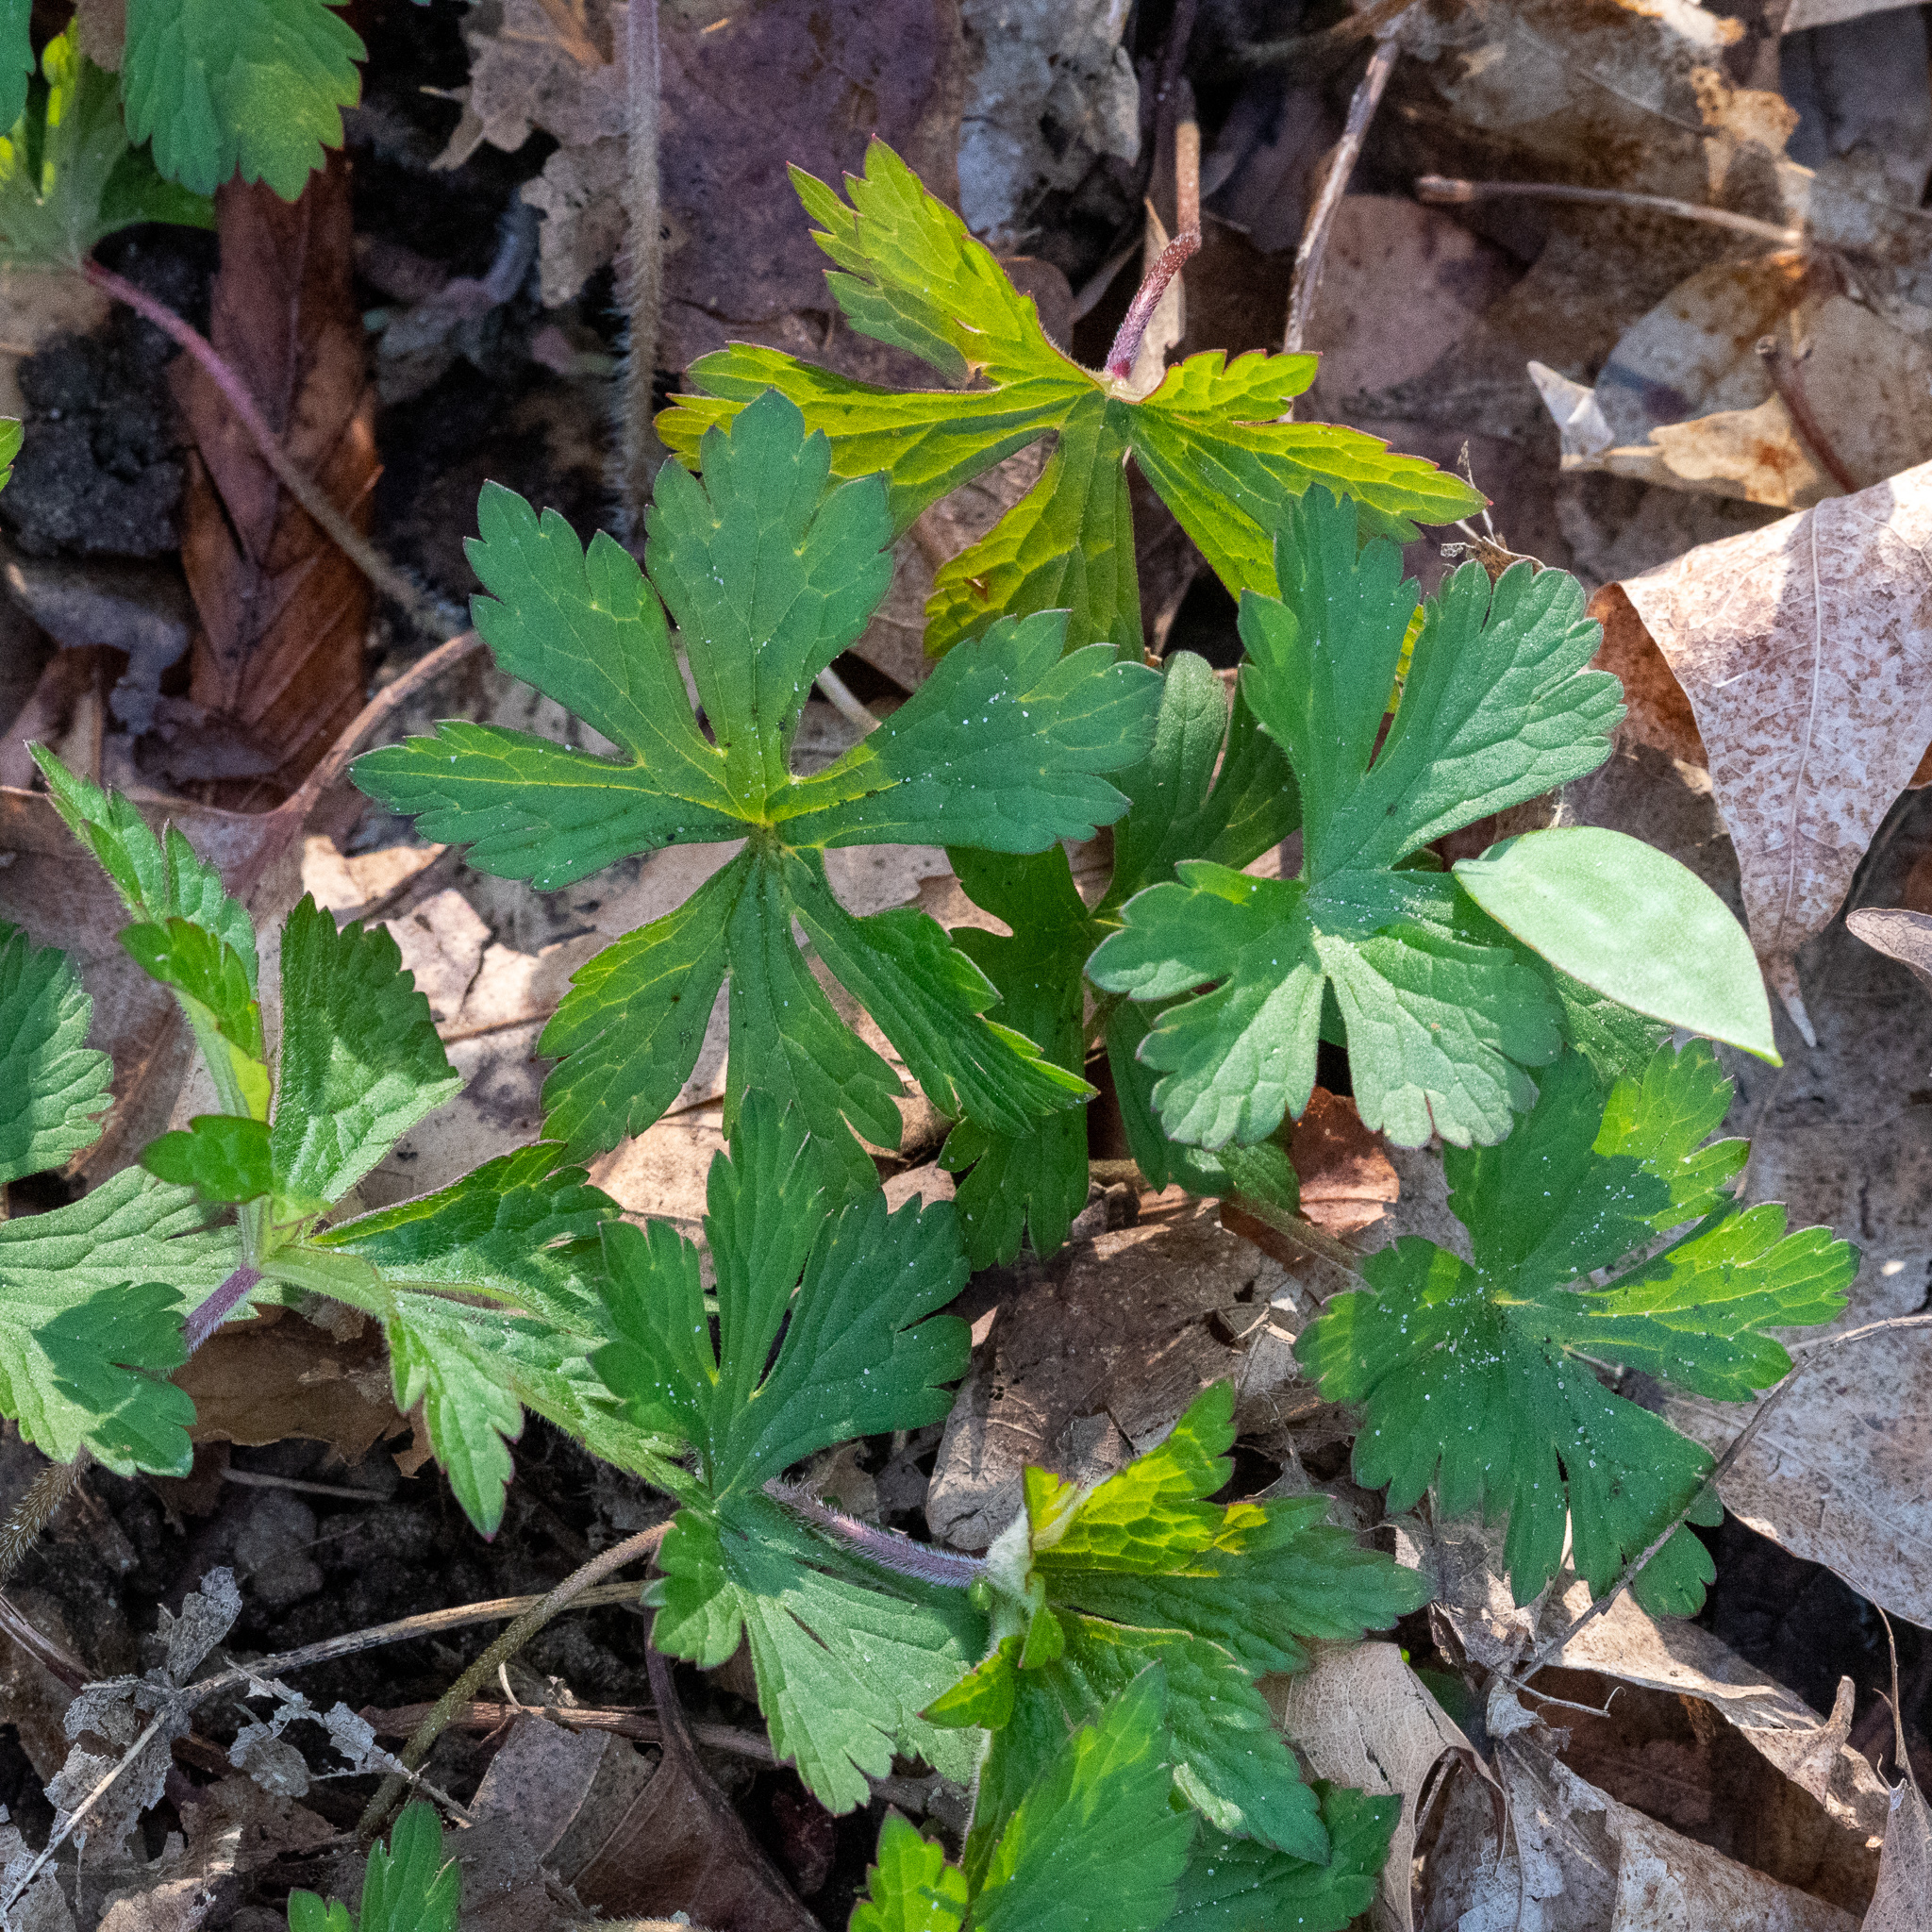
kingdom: Plantae
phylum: Tracheophyta
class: Magnoliopsida
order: Geraniales
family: Geraniaceae
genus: Geranium
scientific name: Geranium maculatum
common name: Spotted geranium
